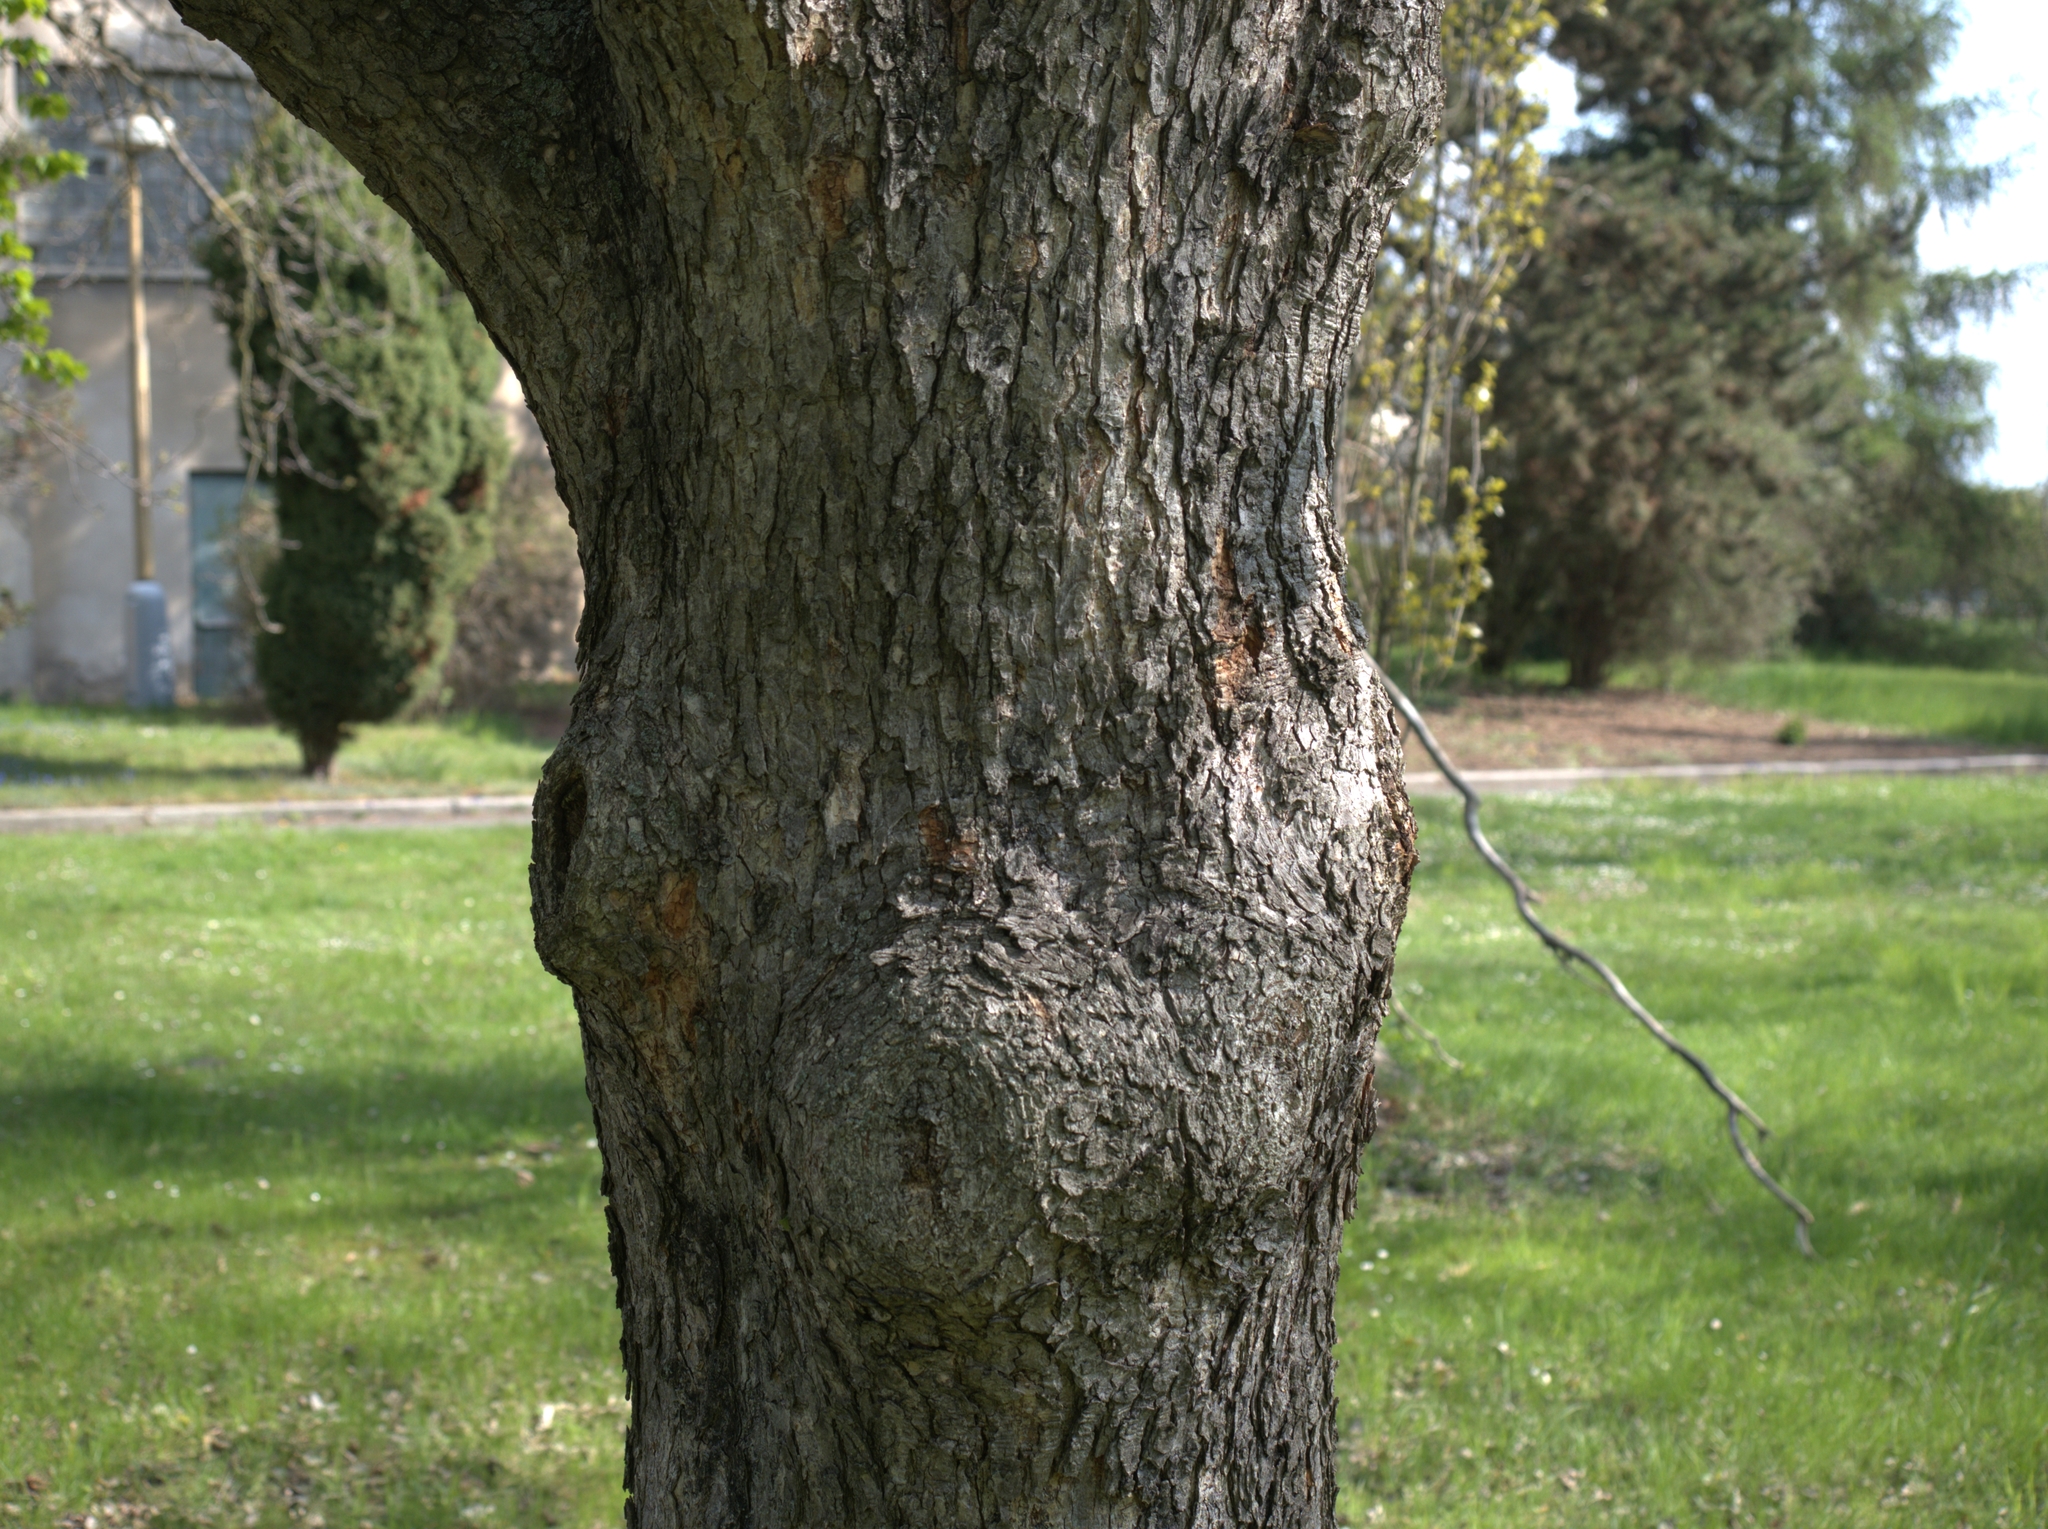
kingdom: Plantae
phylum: Tracheophyta
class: Magnoliopsida
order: Fagales
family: Betulaceae
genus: Corylus
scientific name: Corylus colurna
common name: Turkish hazel
